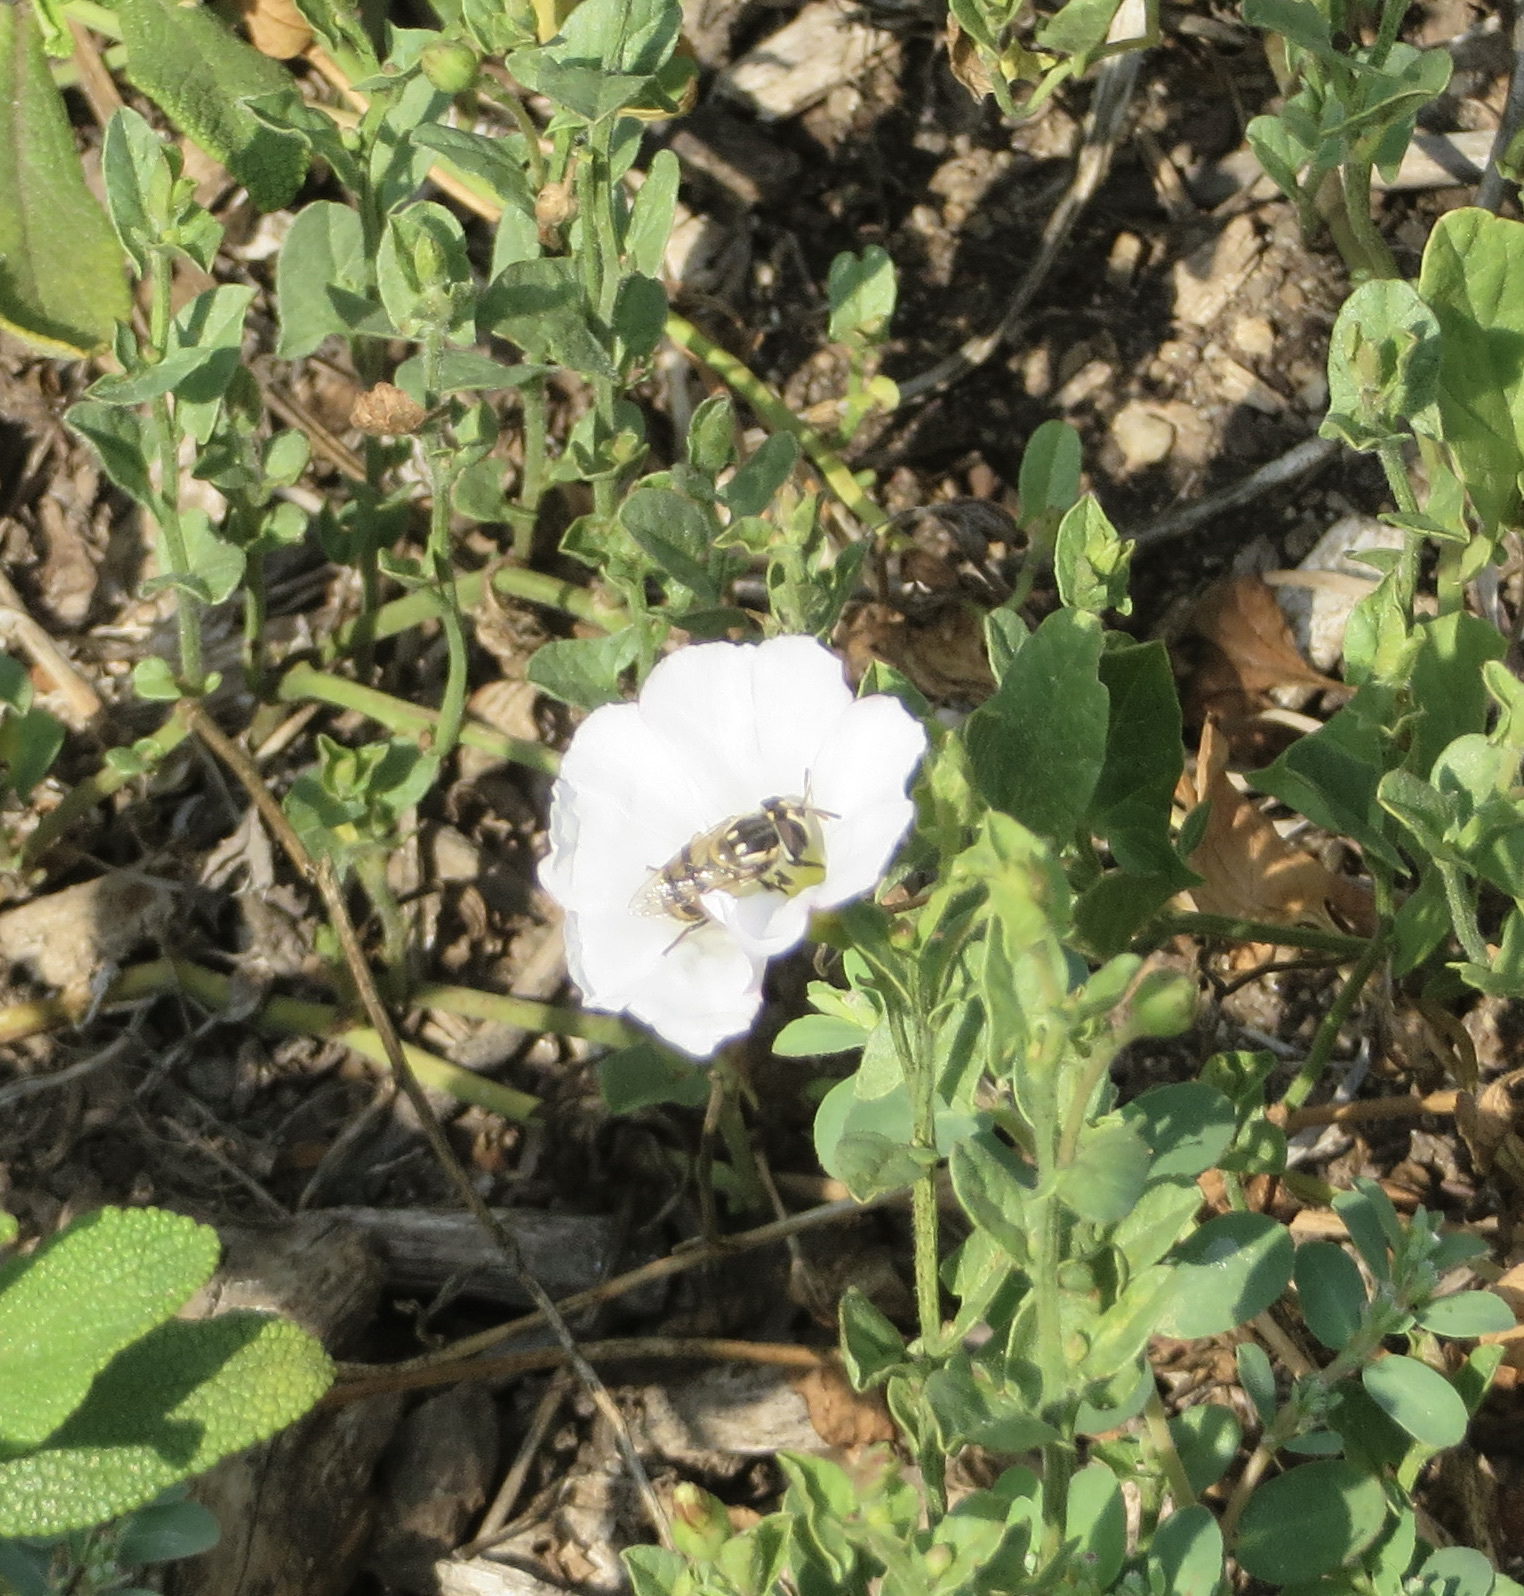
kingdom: Animalia
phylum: Arthropoda
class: Insecta
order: Diptera
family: Syrphidae
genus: Copestylum
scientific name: Copestylum marginatum
